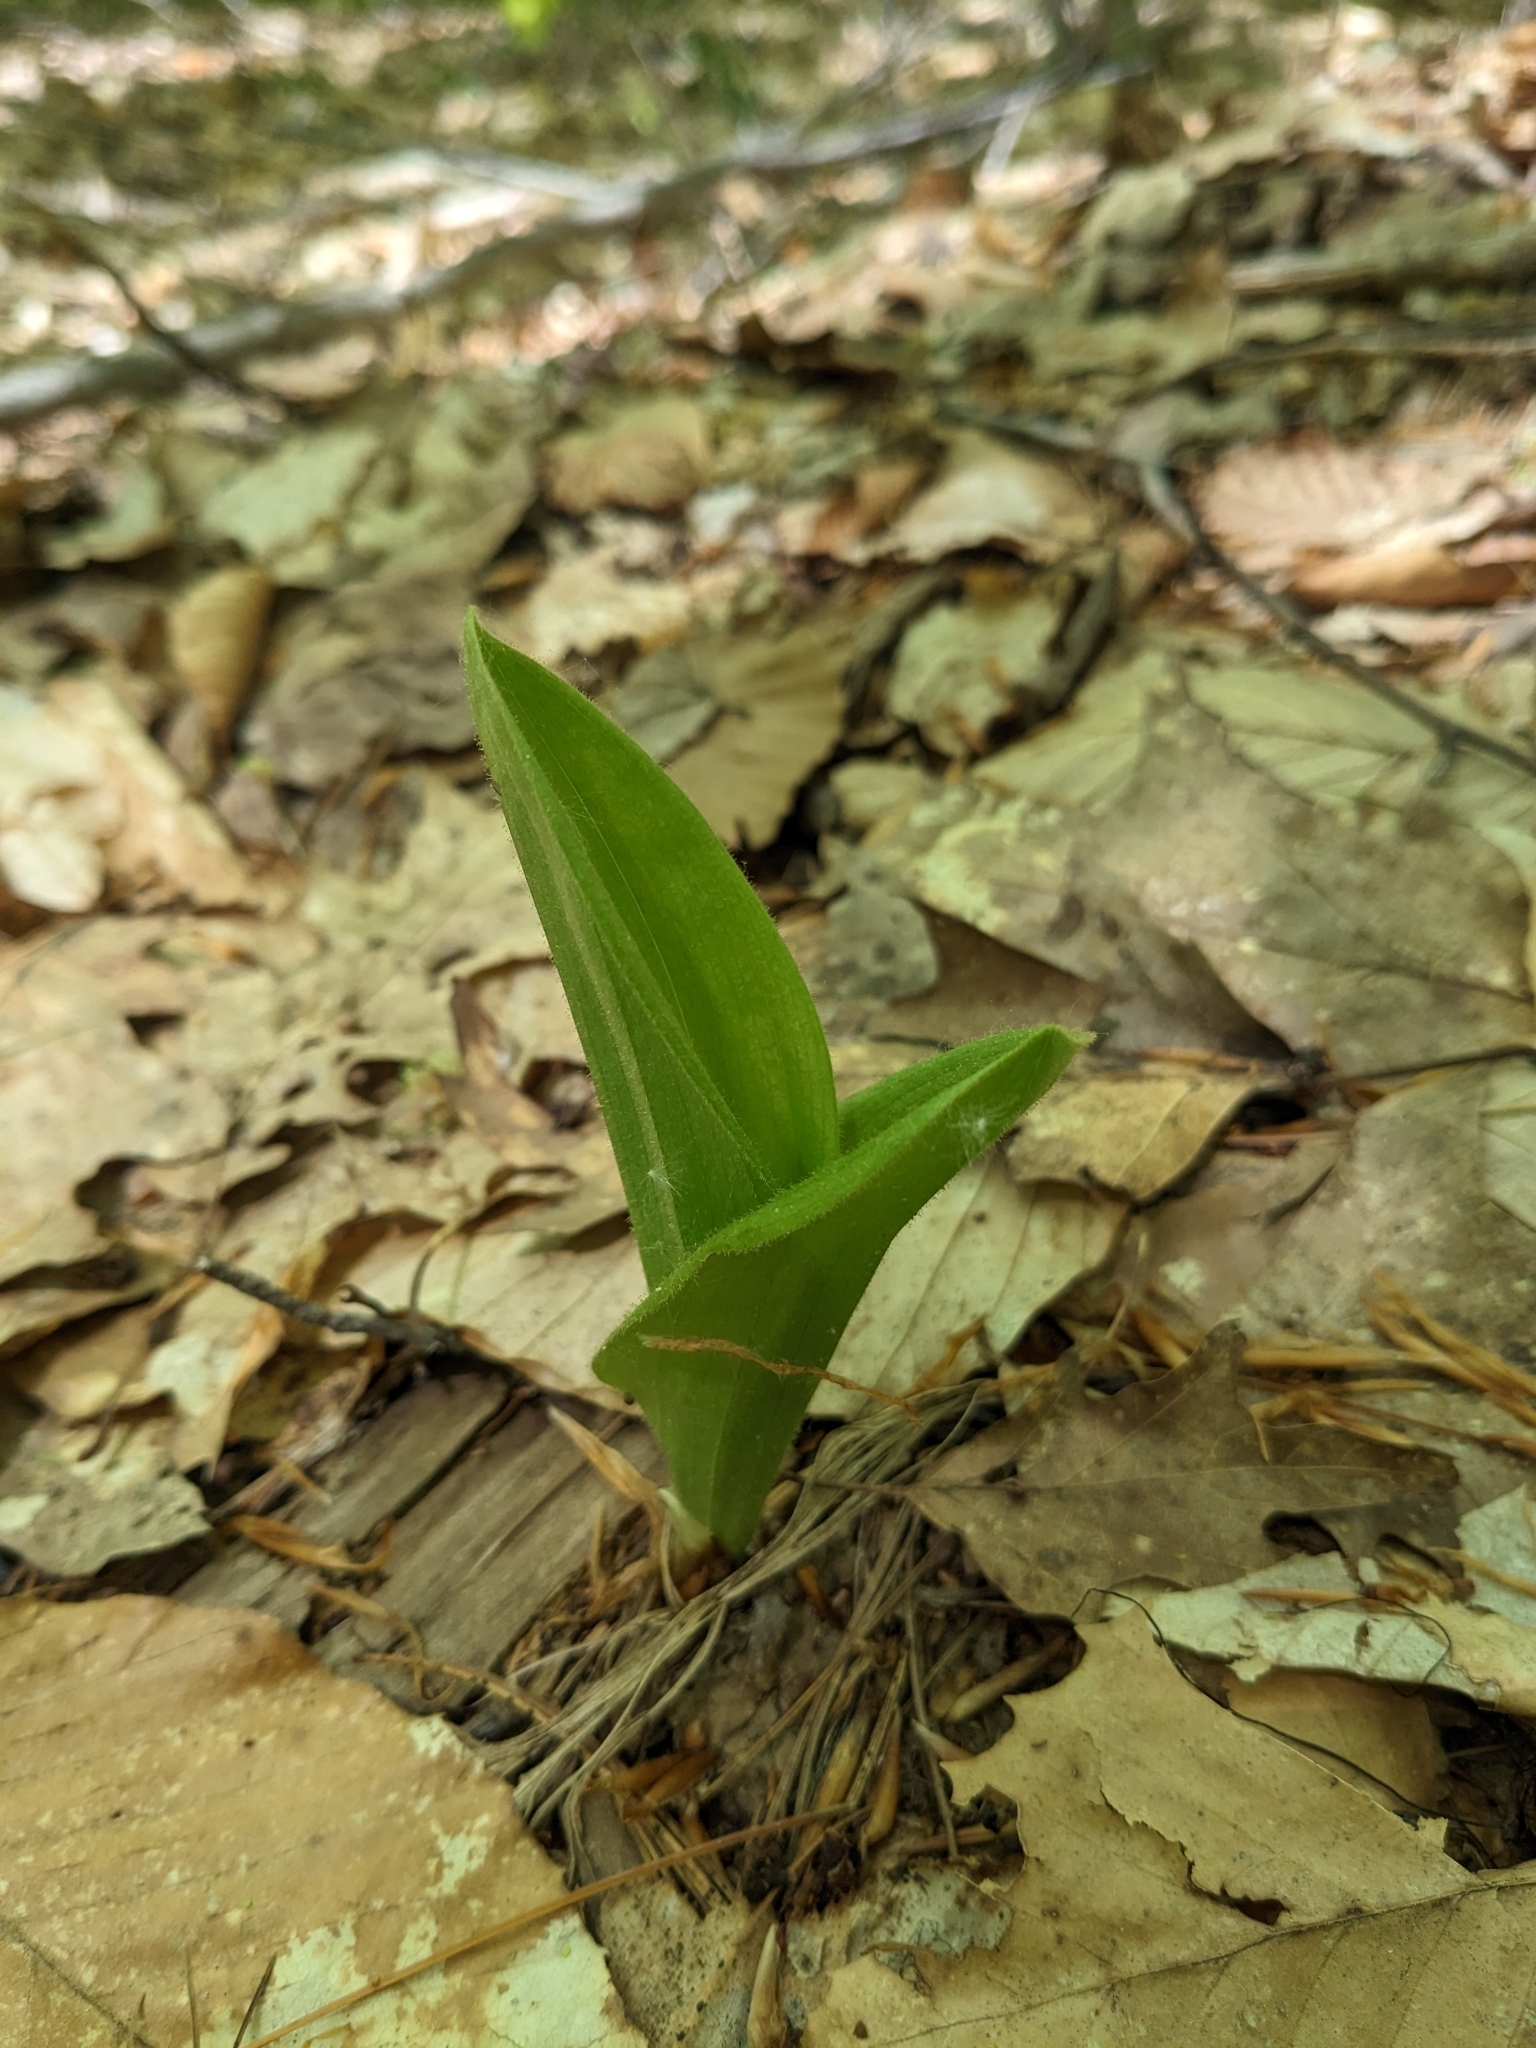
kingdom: Plantae
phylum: Tracheophyta
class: Liliopsida
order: Asparagales
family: Orchidaceae
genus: Cypripedium
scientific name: Cypripedium acaule
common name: Pink lady's-slipper
